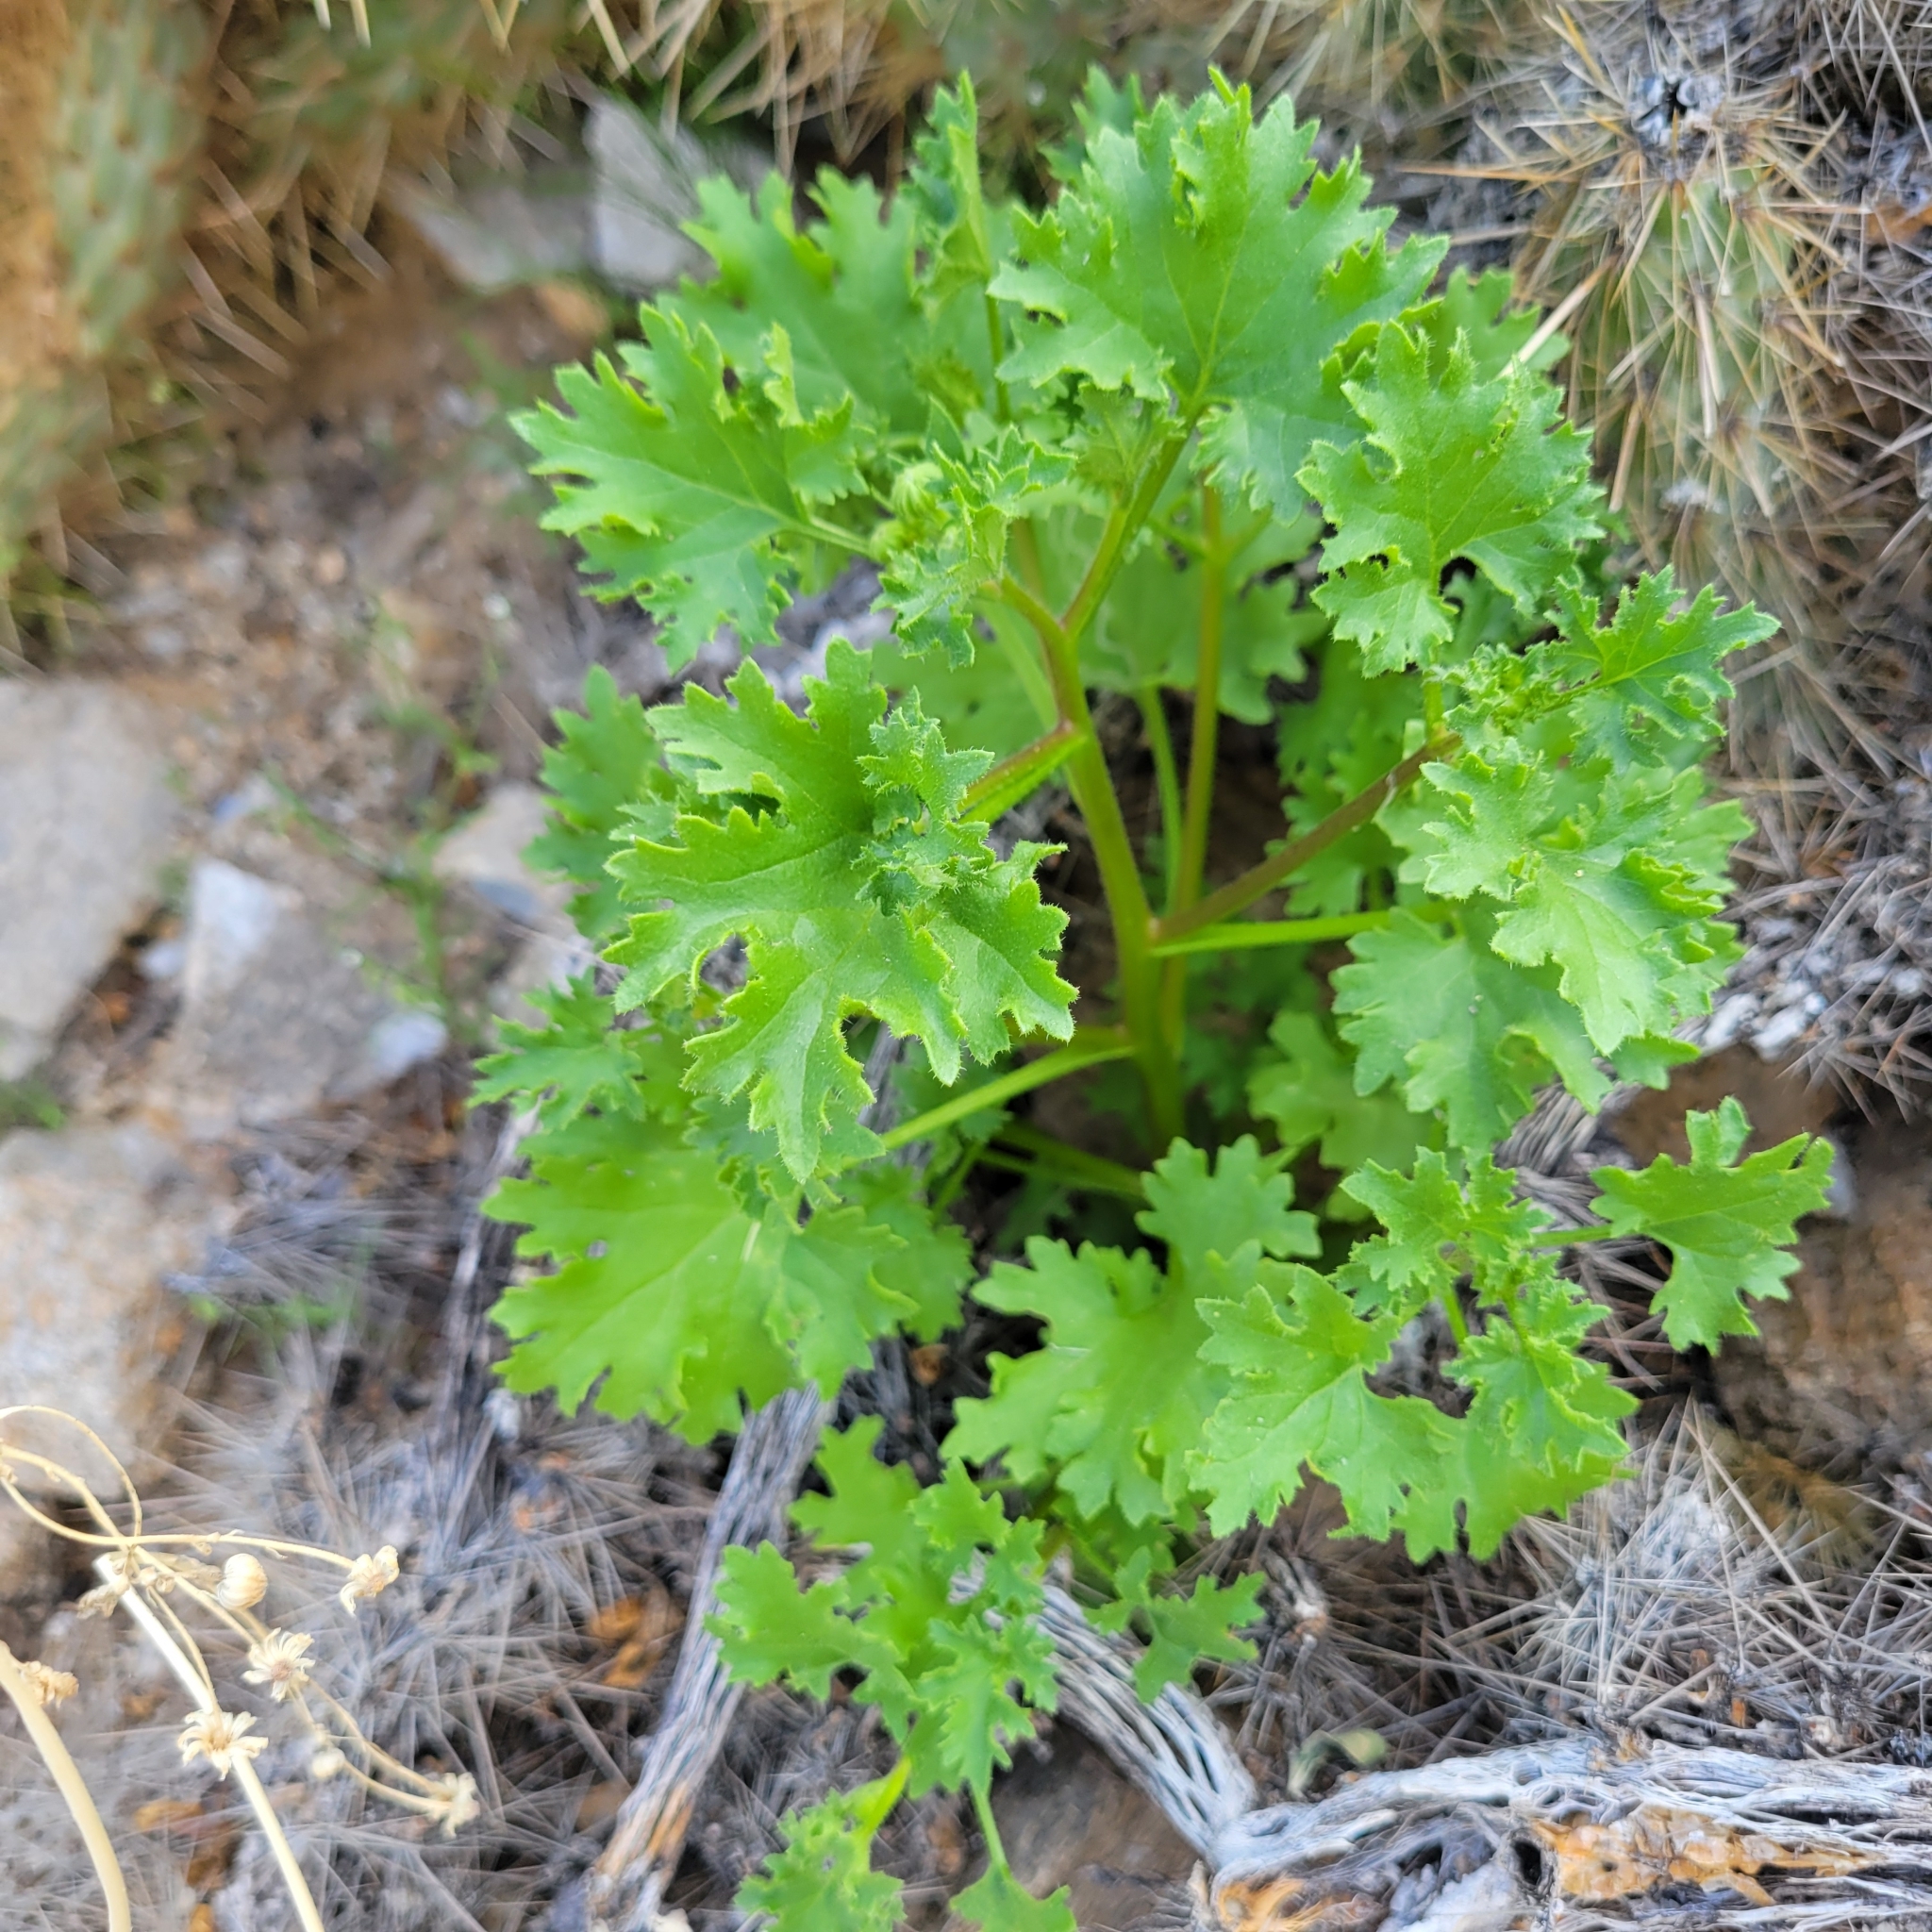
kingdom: Plantae
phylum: Tracheophyta
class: Magnoliopsida
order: Asterales
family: Asteraceae
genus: Laphamia
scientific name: Laphamia emoryi
